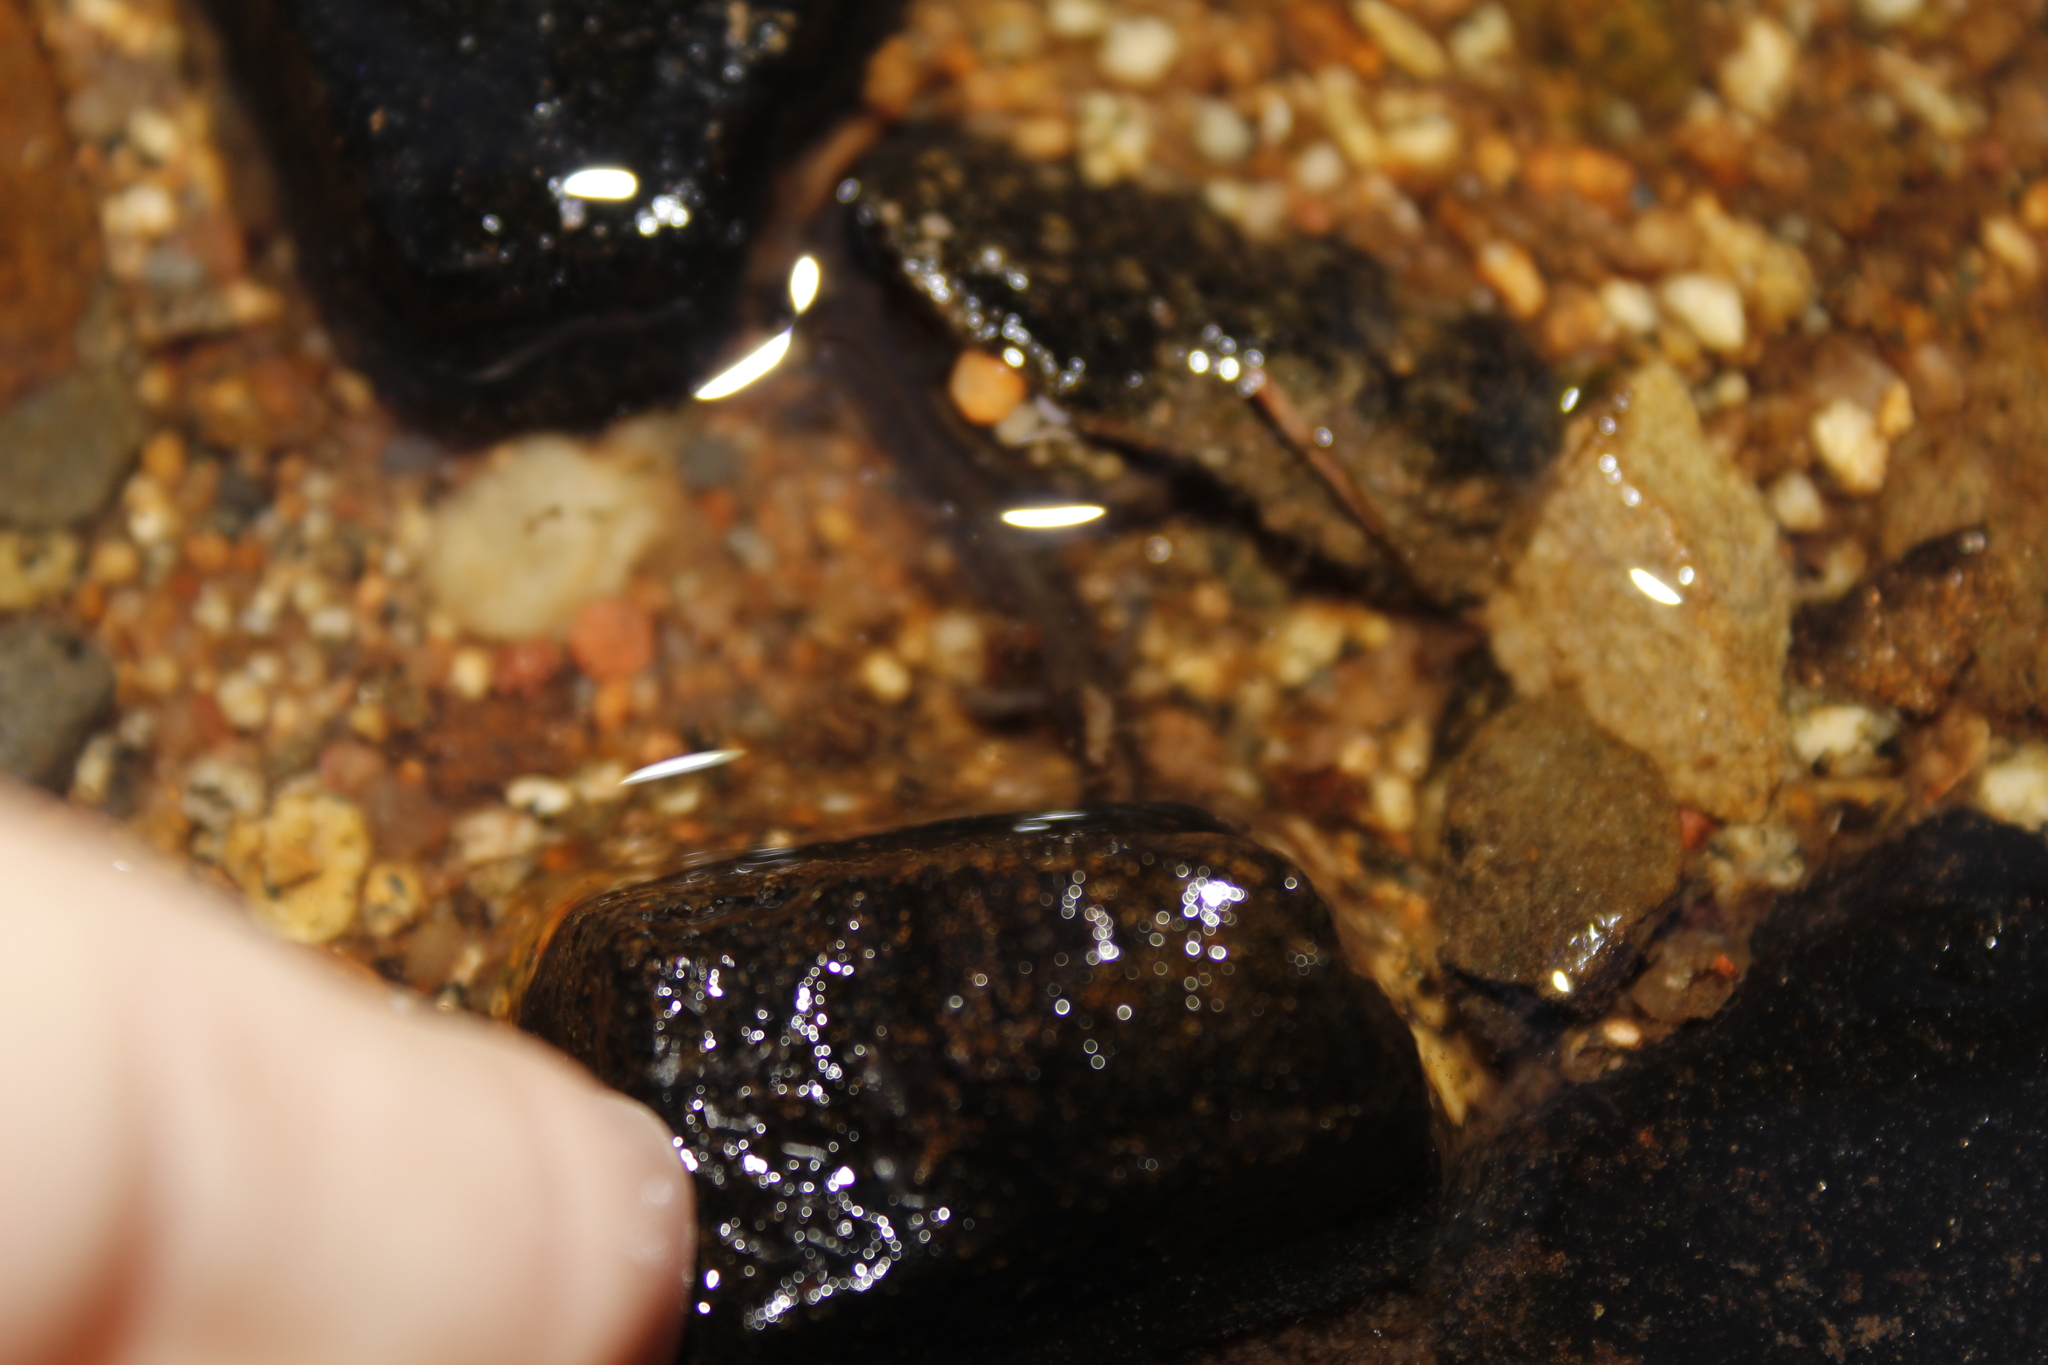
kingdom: Animalia
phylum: Chordata
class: Amphibia
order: Caudata
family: Plethodontidae
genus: Eurycea
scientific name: Eurycea bislineata
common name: Northern two-lined salamander
